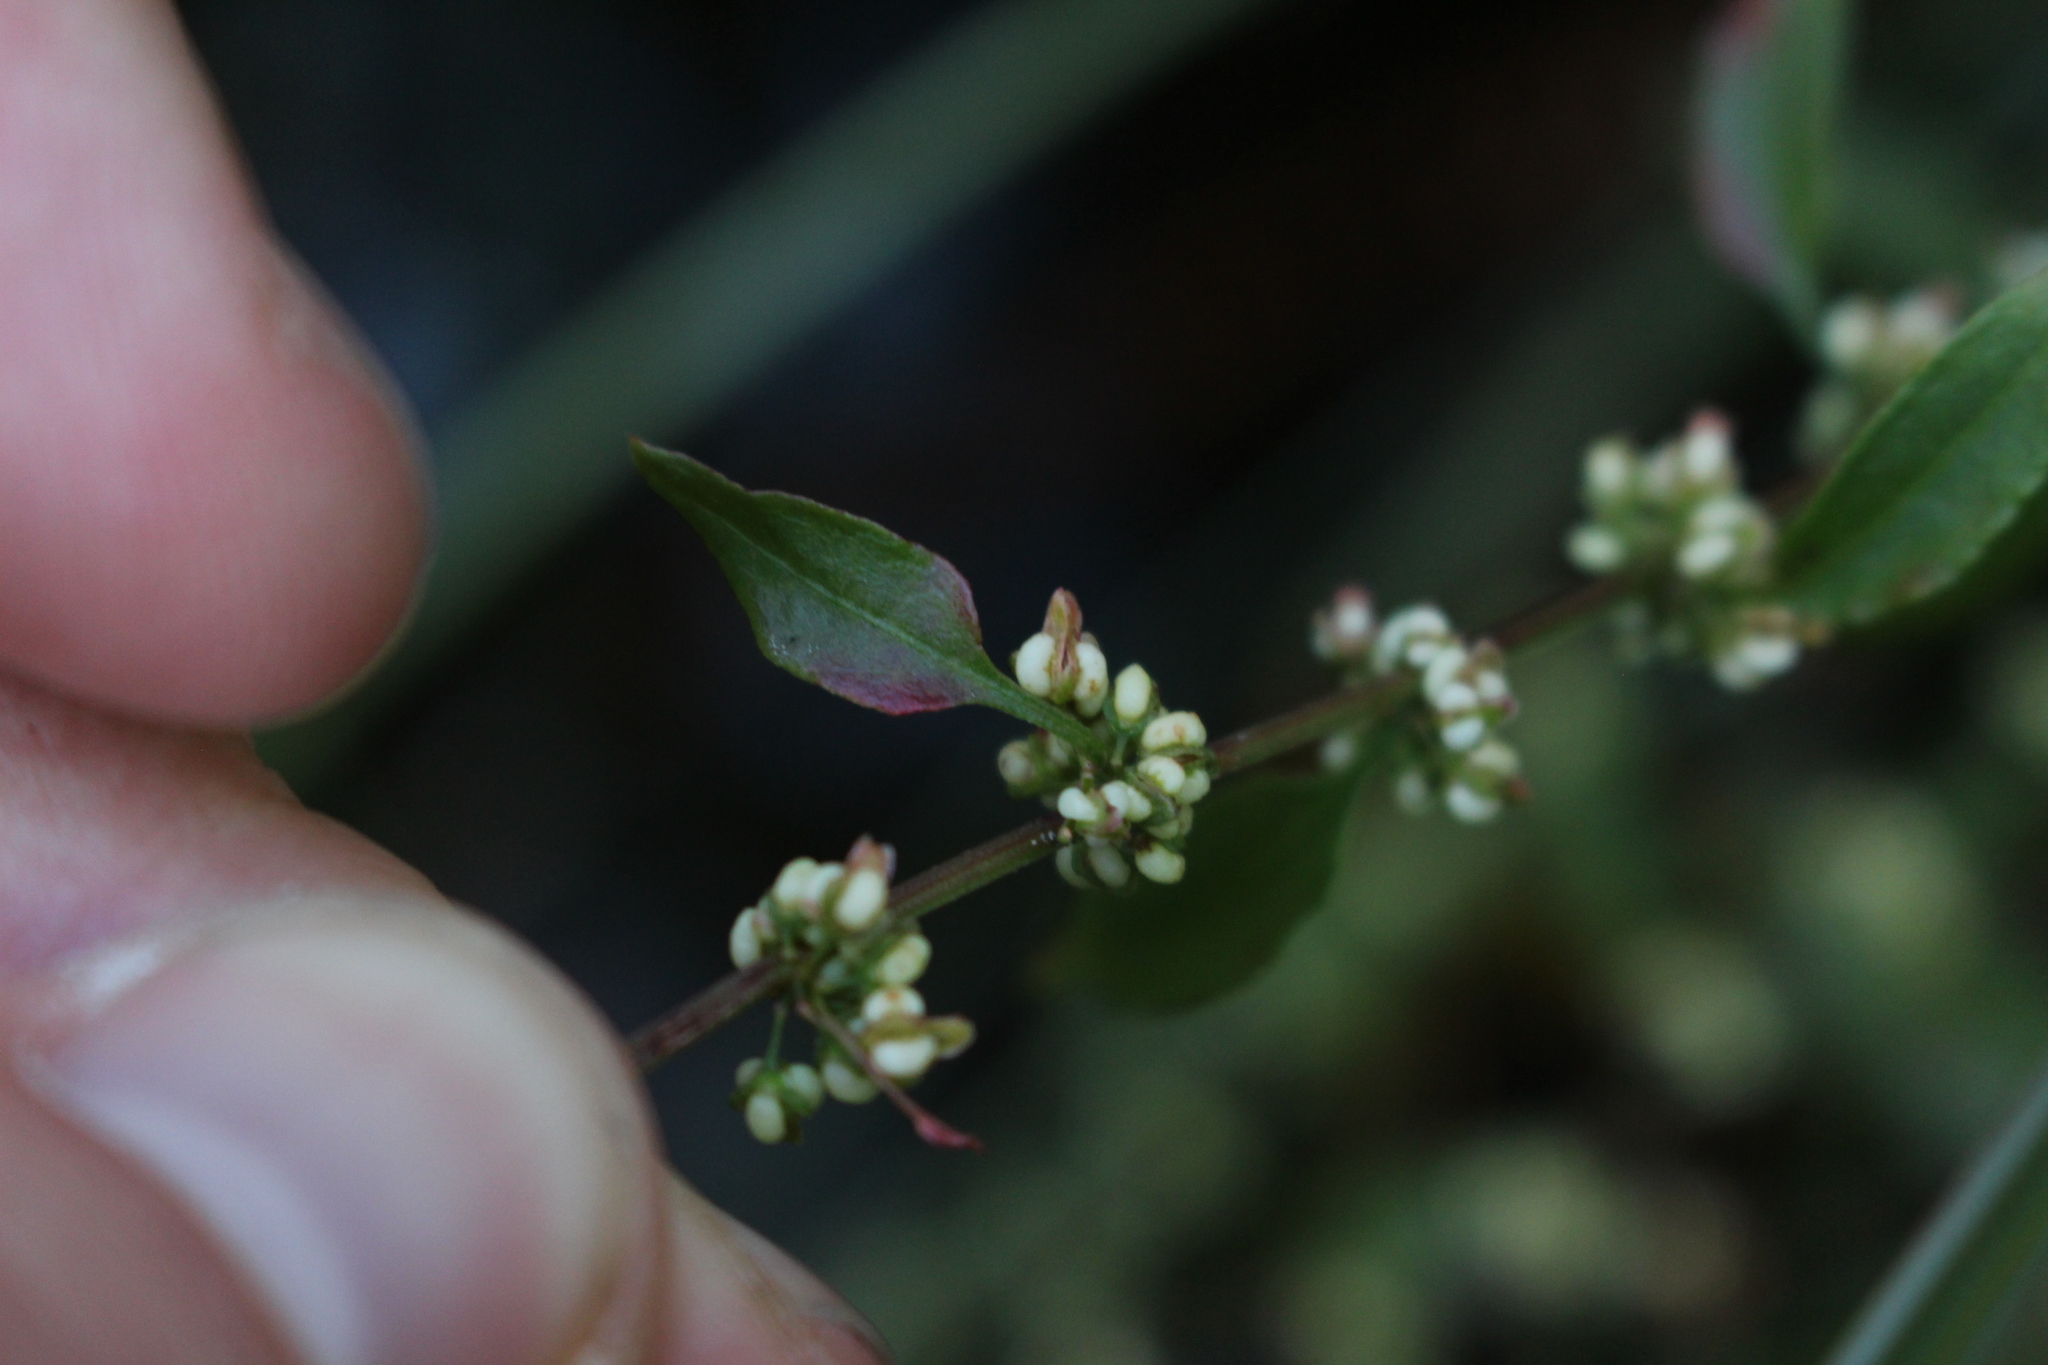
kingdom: Plantae
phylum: Tracheophyta
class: Magnoliopsida
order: Caryophyllales
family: Polygonaceae
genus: Rumex
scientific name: Rumex conglomeratus
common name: Clustered dock
